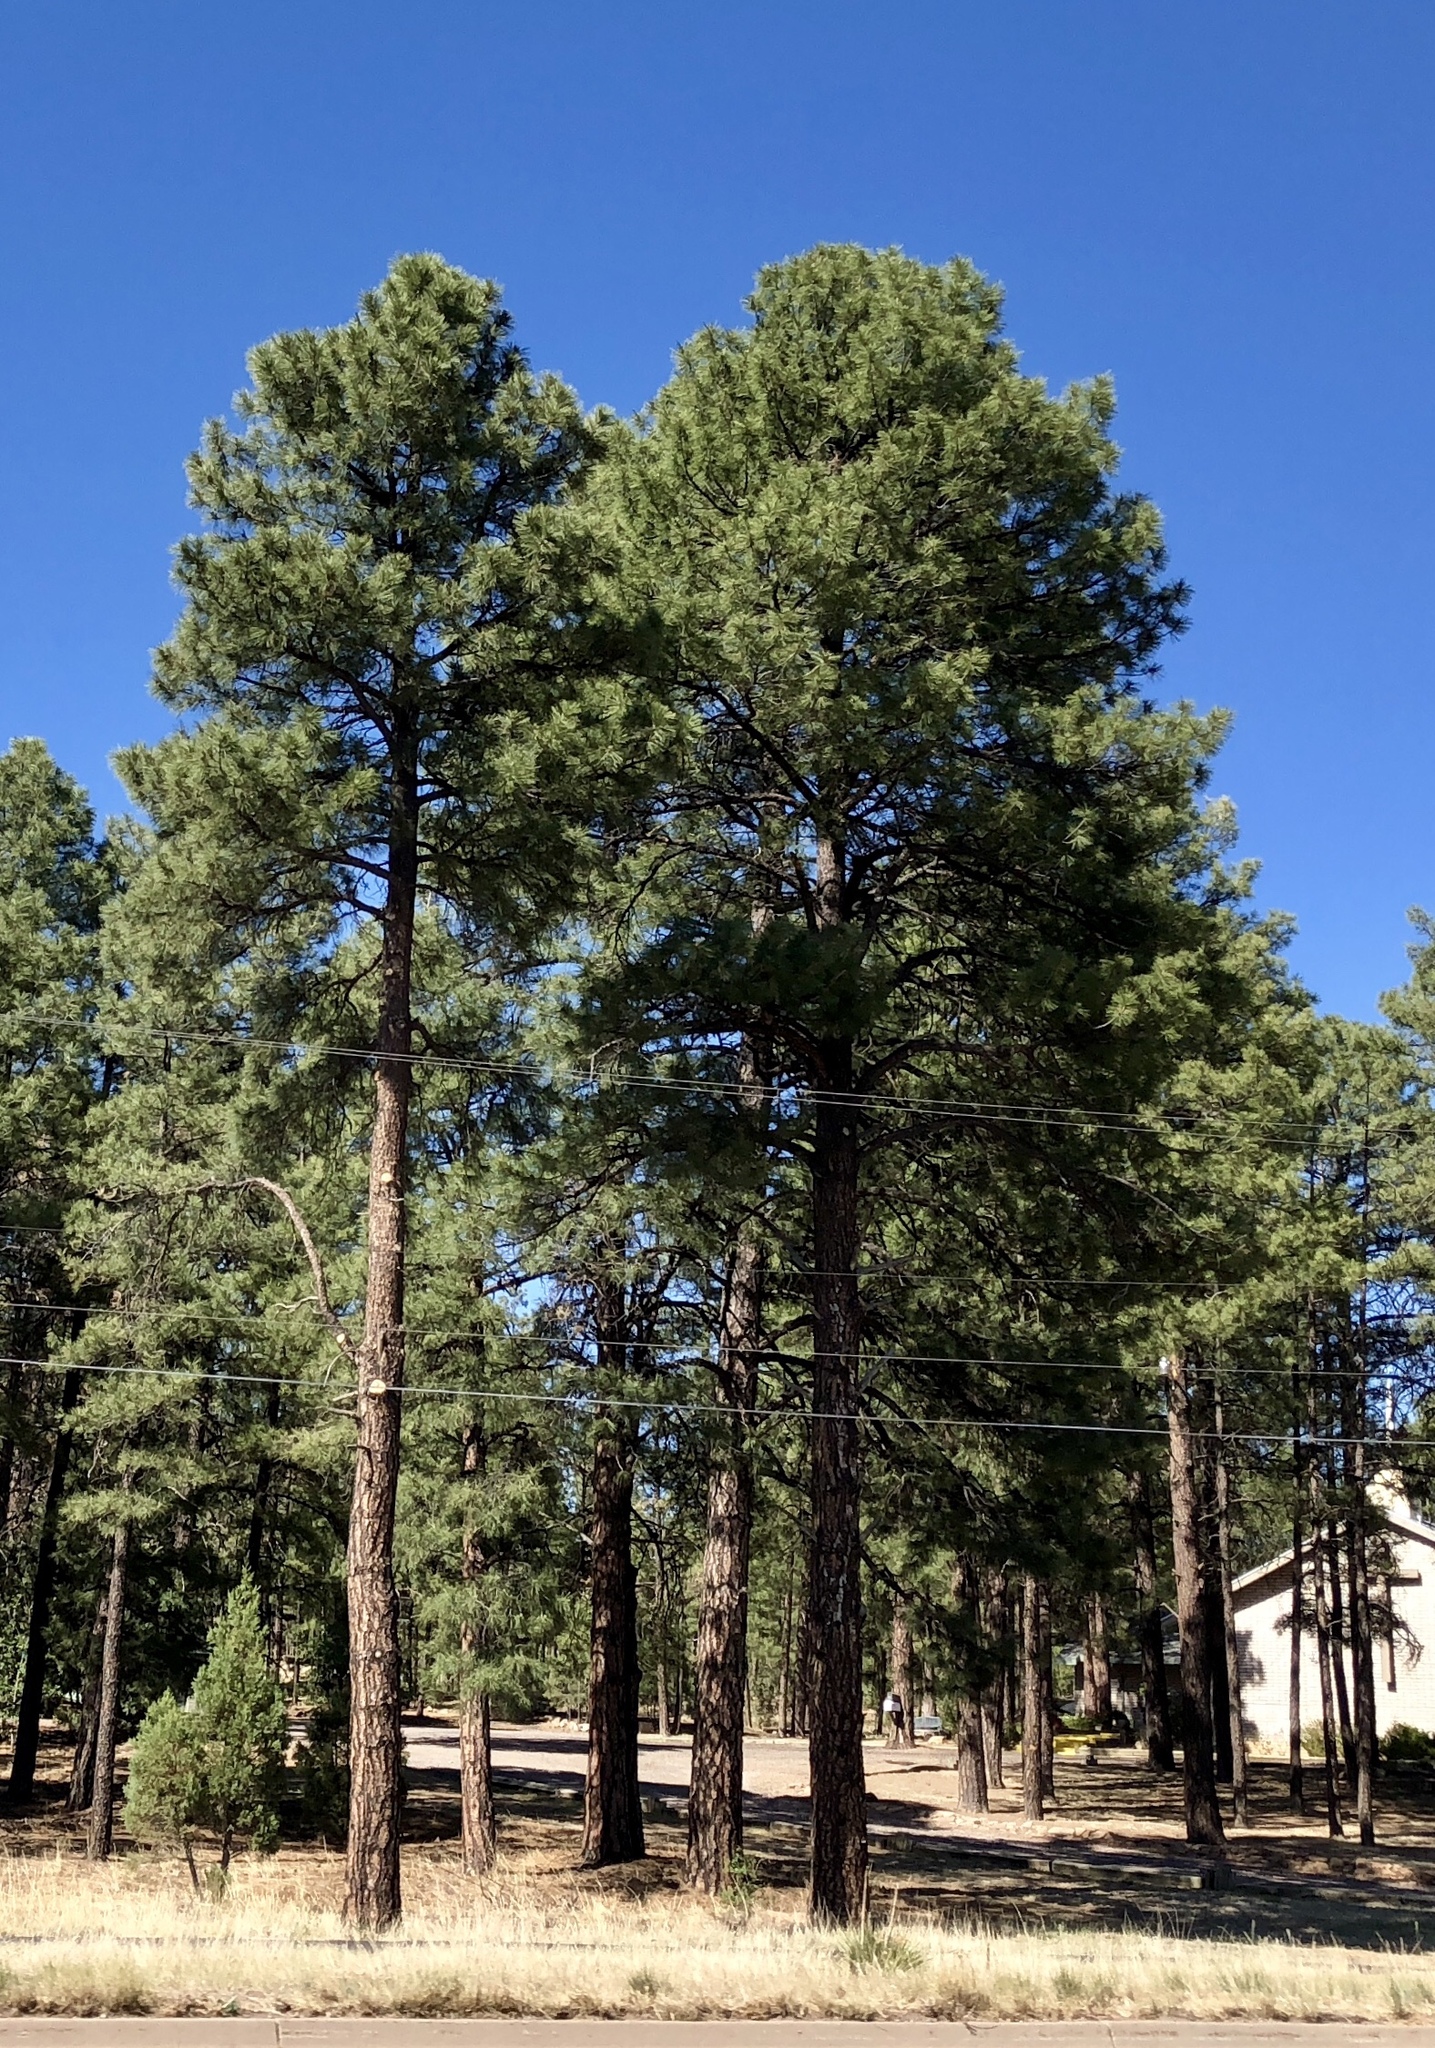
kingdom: Plantae
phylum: Tracheophyta
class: Pinopsida
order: Pinales
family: Pinaceae
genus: Pinus
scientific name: Pinus ponderosa
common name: Western yellow-pine
